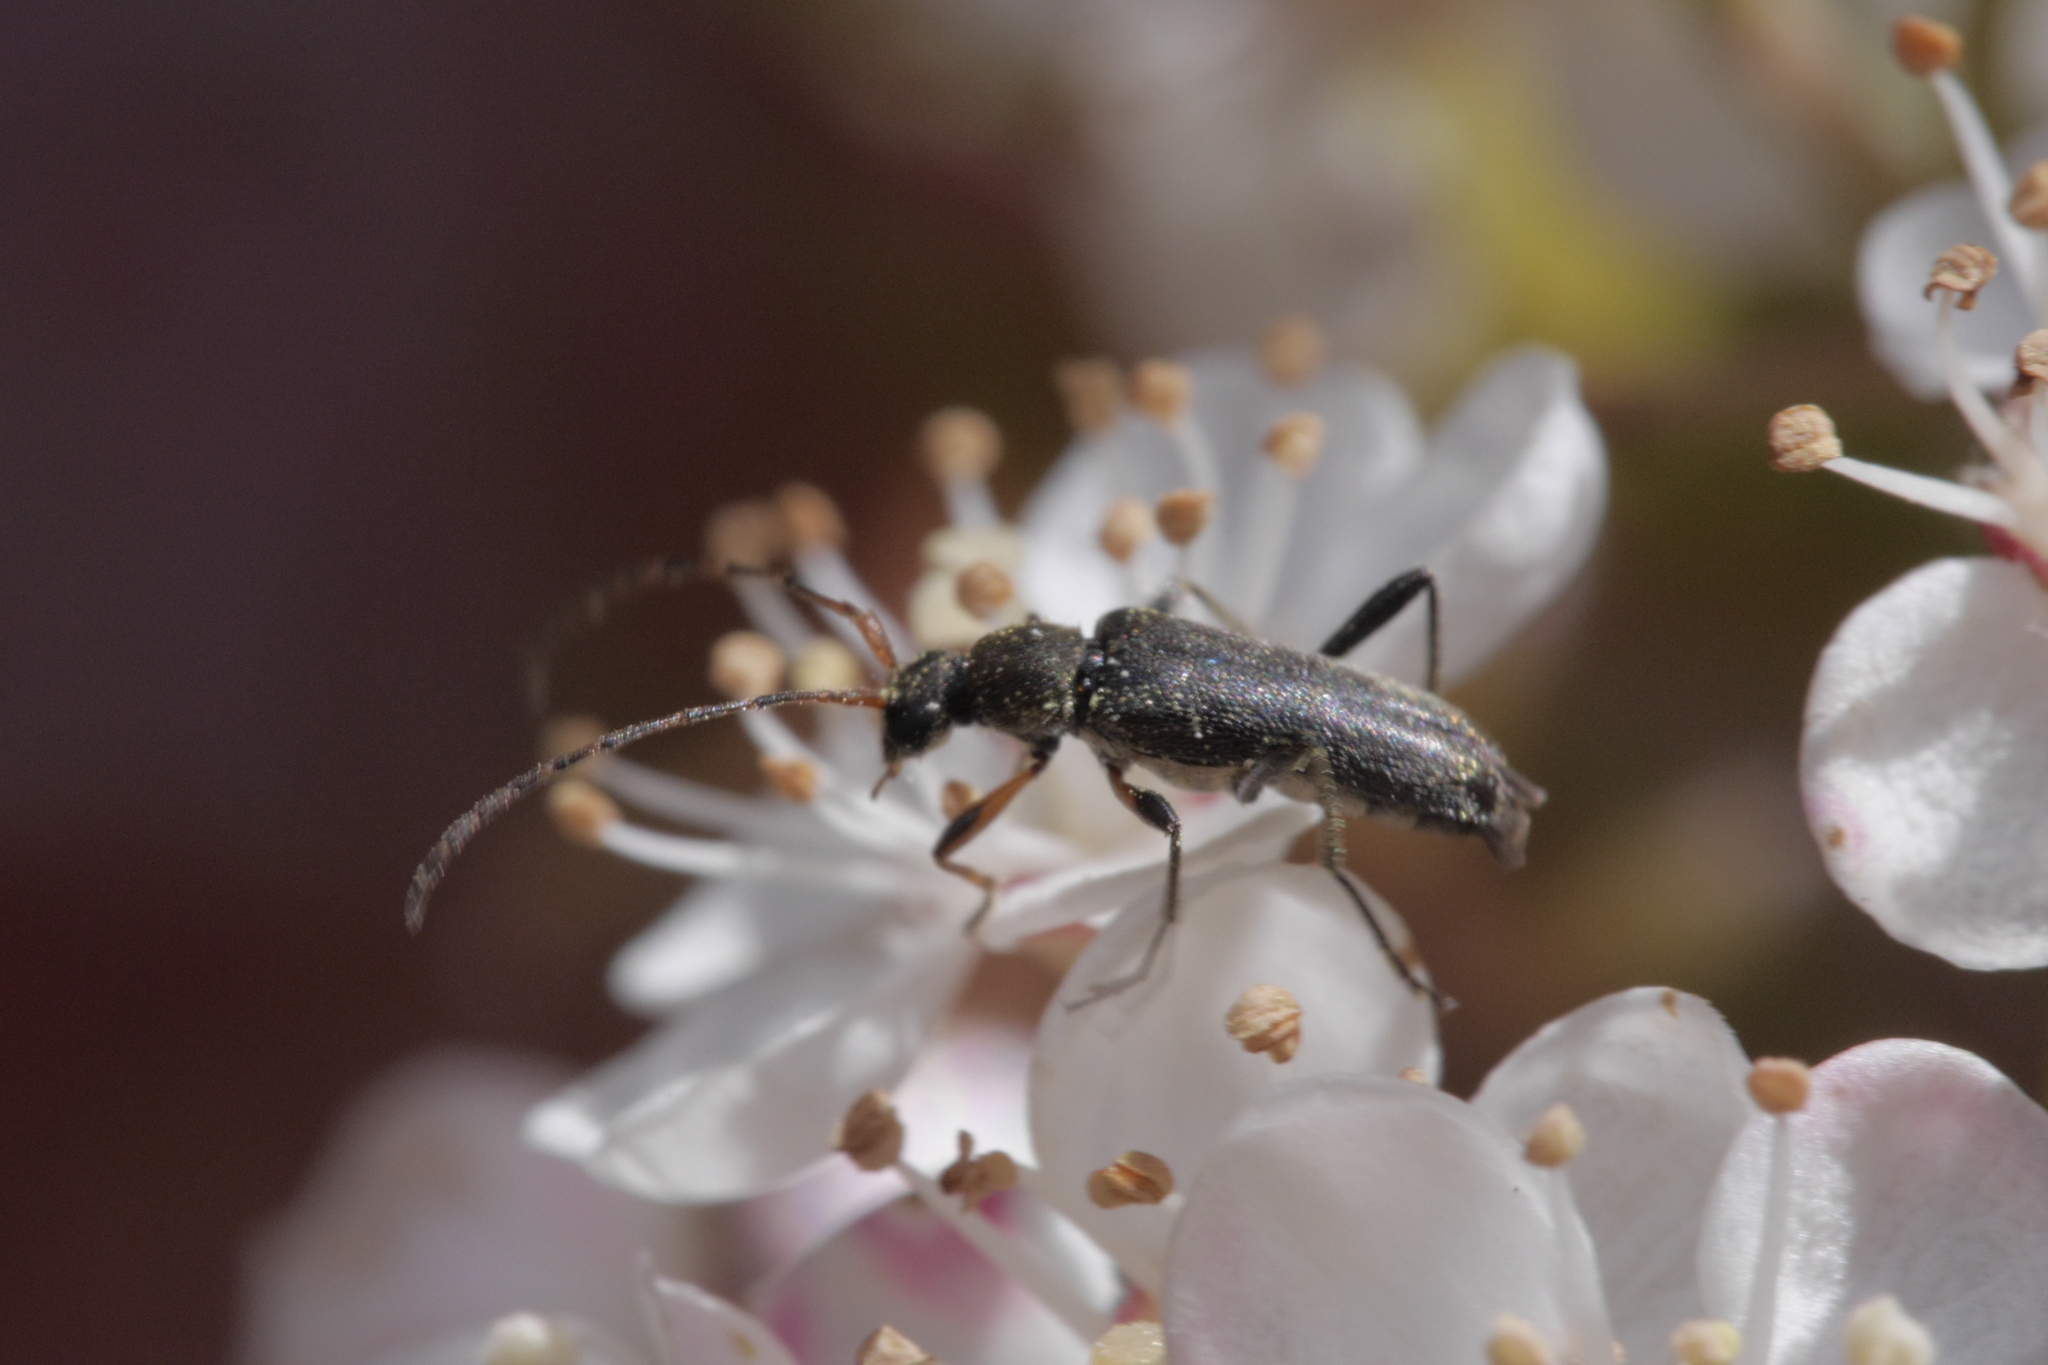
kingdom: Animalia
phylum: Arthropoda
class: Insecta
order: Coleoptera
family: Cerambycidae
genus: Grammoptera
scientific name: Grammoptera ruficornis
